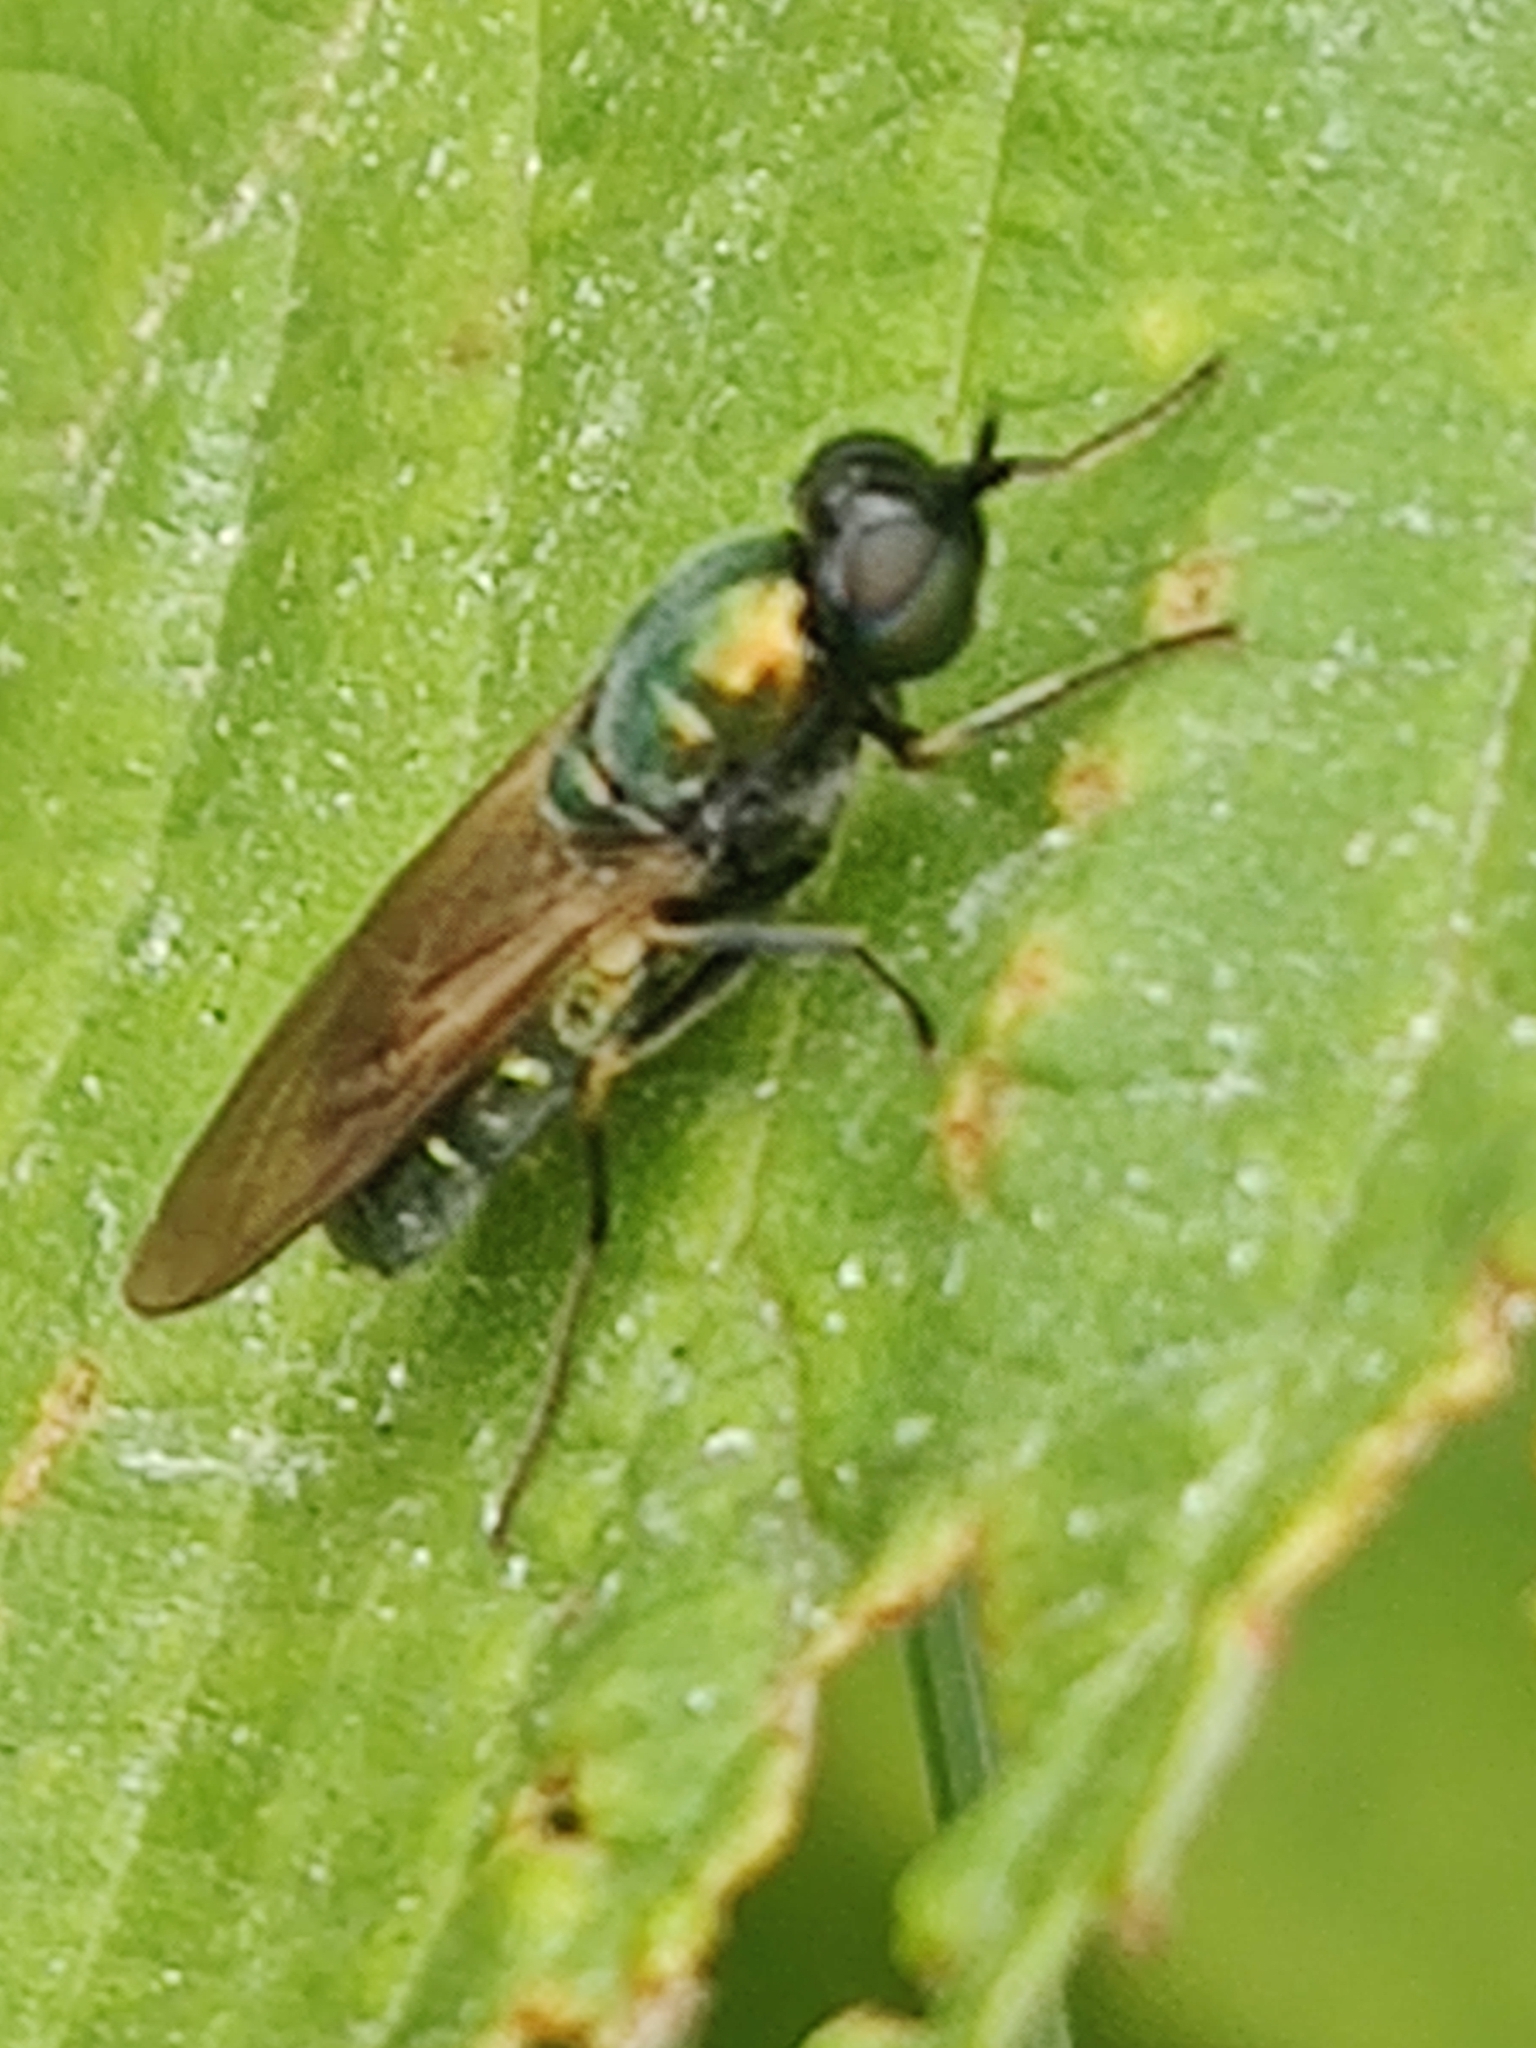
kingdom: Animalia
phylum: Arthropoda
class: Insecta
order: Diptera
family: Stratiomyidae
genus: Chloromyia
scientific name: Chloromyia formosa
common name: Soldier fly
